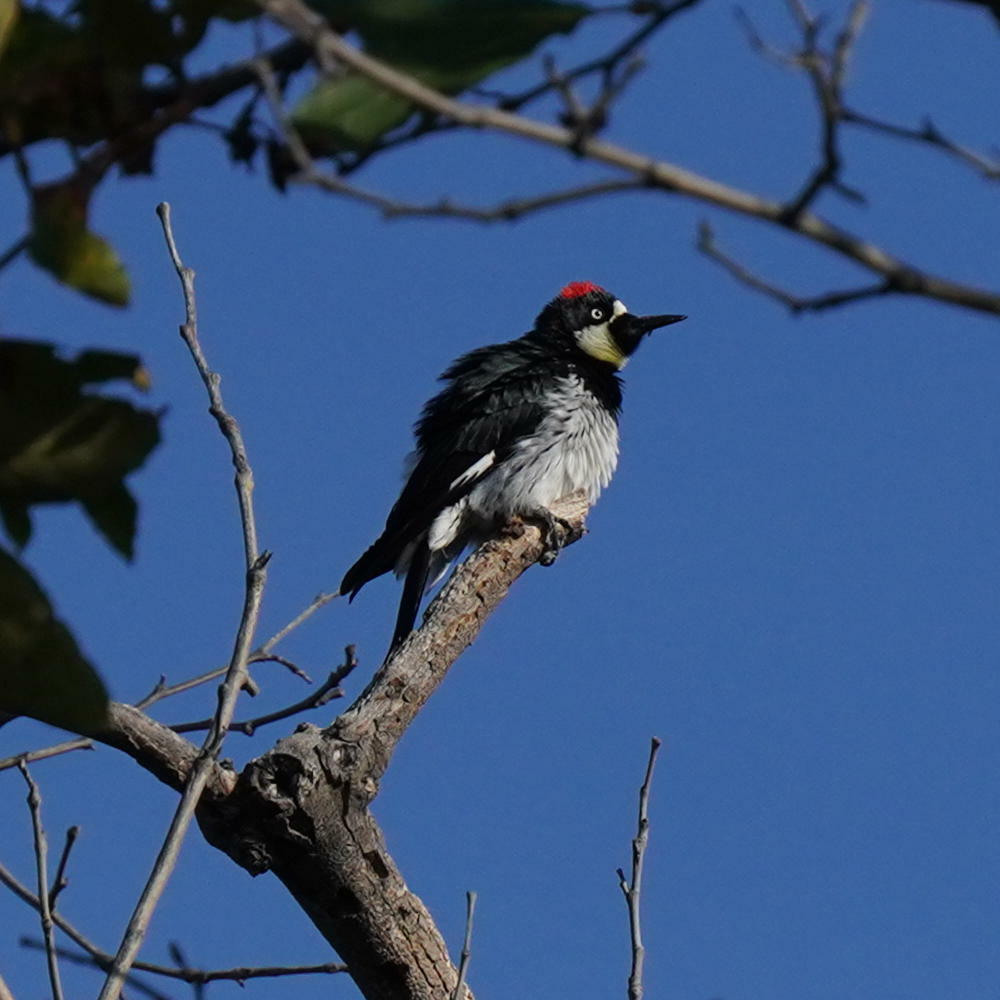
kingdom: Animalia
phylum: Chordata
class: Aves
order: Piciformes
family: Picidae
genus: Melanerpes
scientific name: Melanerpes formicivorus
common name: Acorn woodpecker
